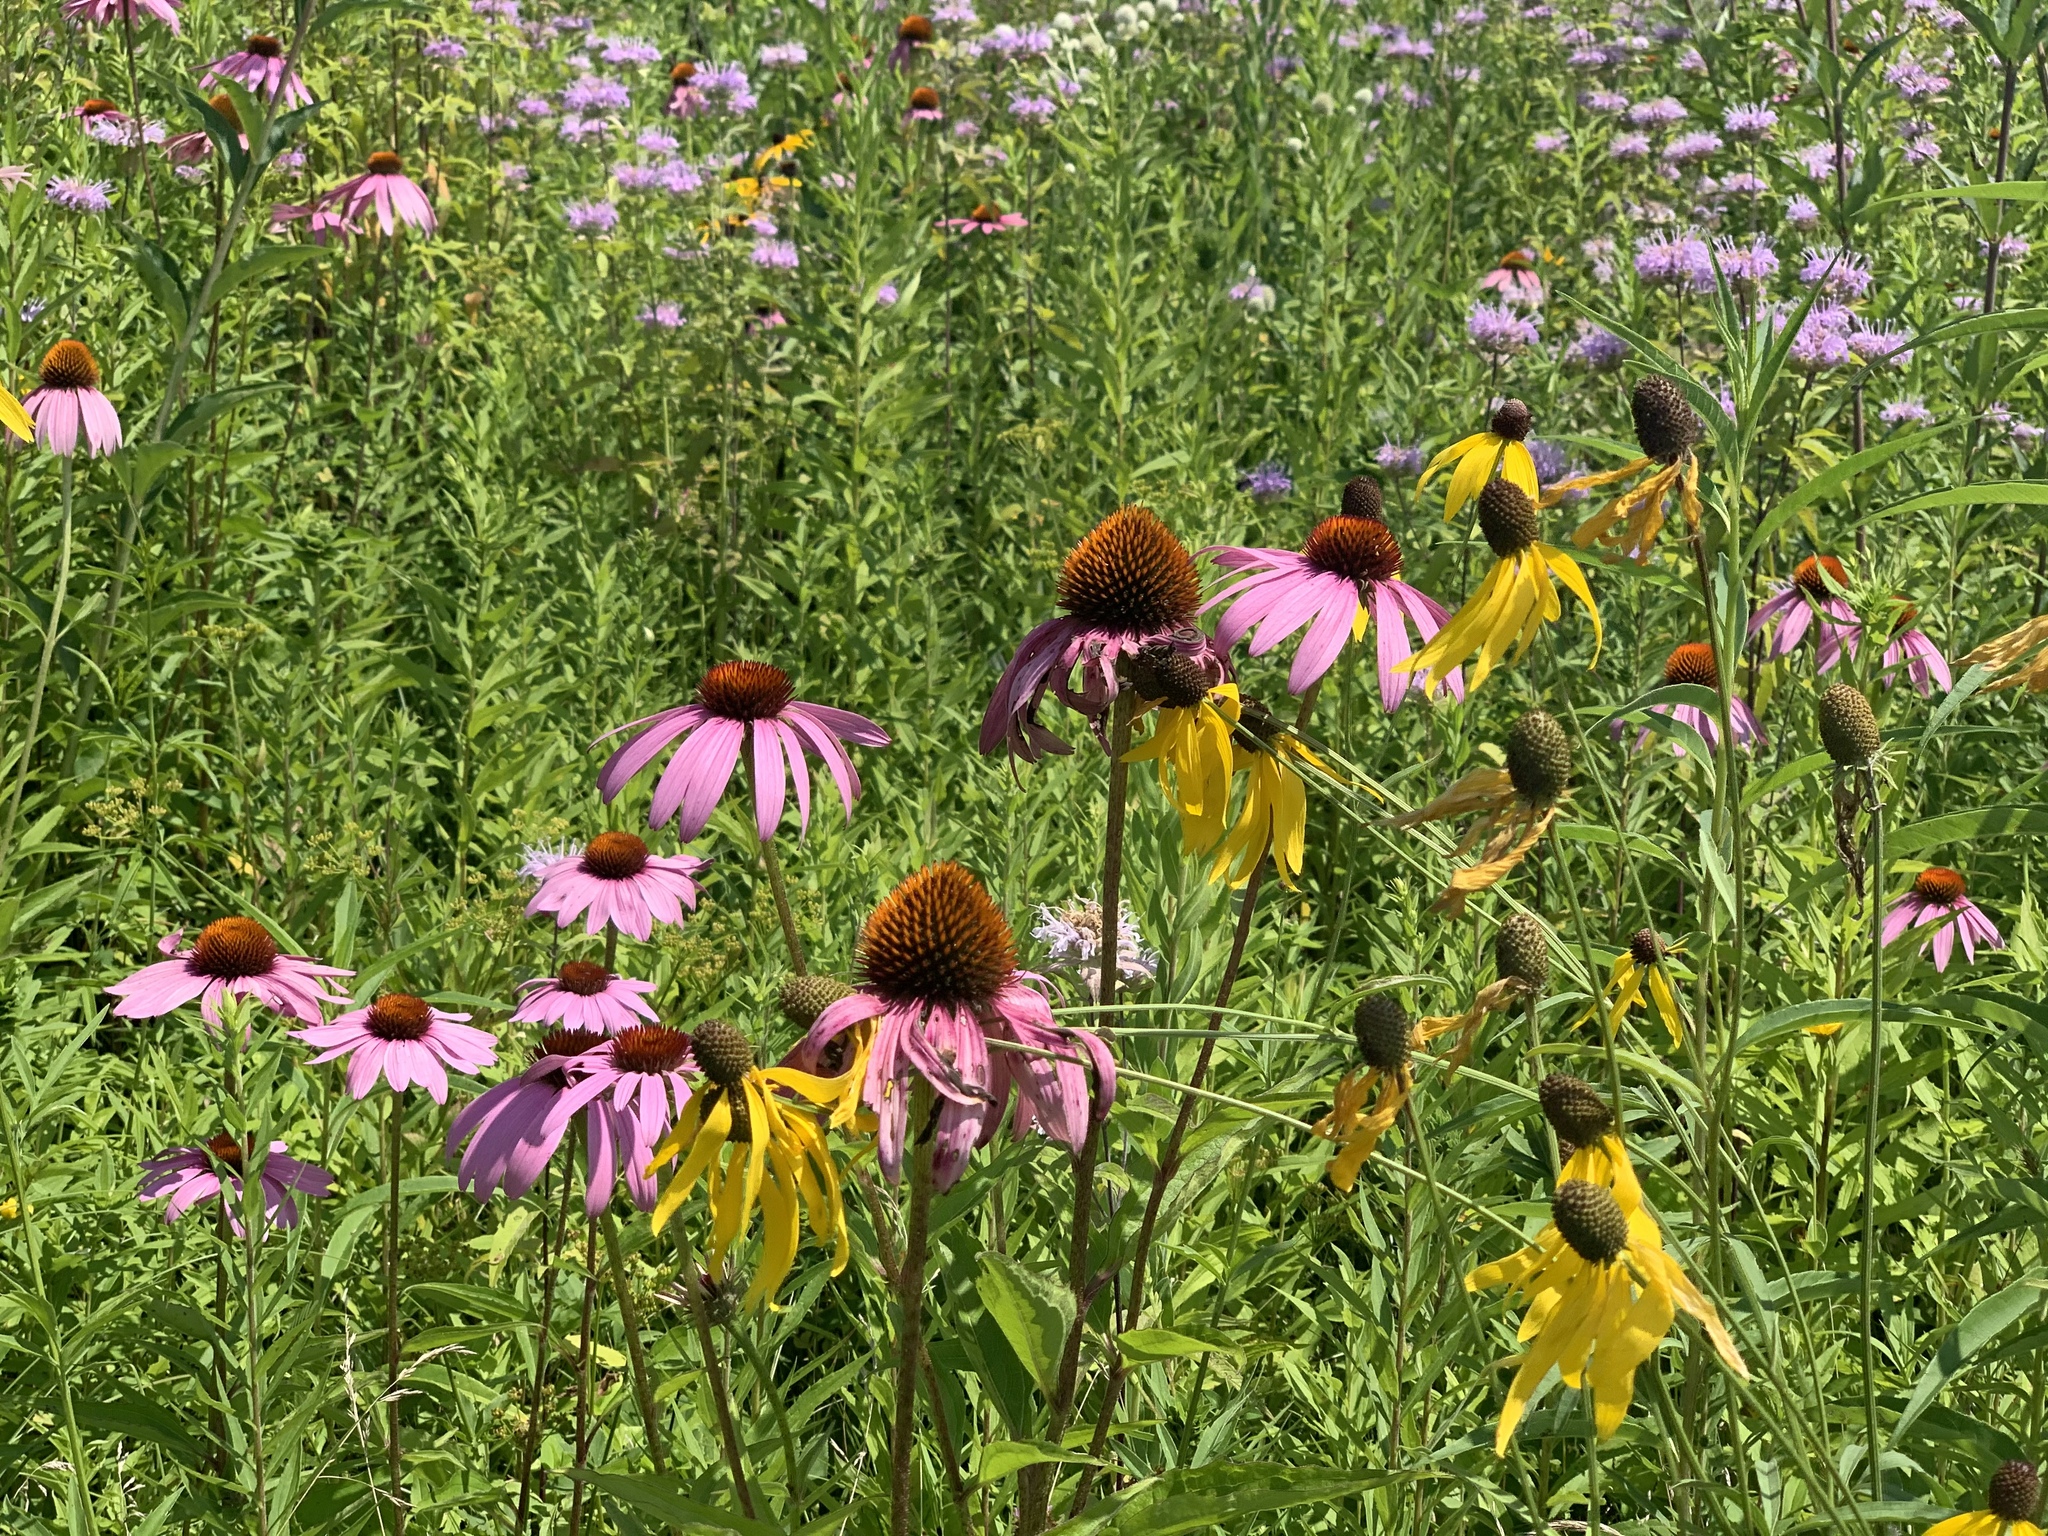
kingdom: Plantae
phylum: Tracheophyta
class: Magnoliopsida
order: Asterales
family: Asteraceae
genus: Echinacea
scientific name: Echinacea purpurea
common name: Broad-leaved purple coneflower
